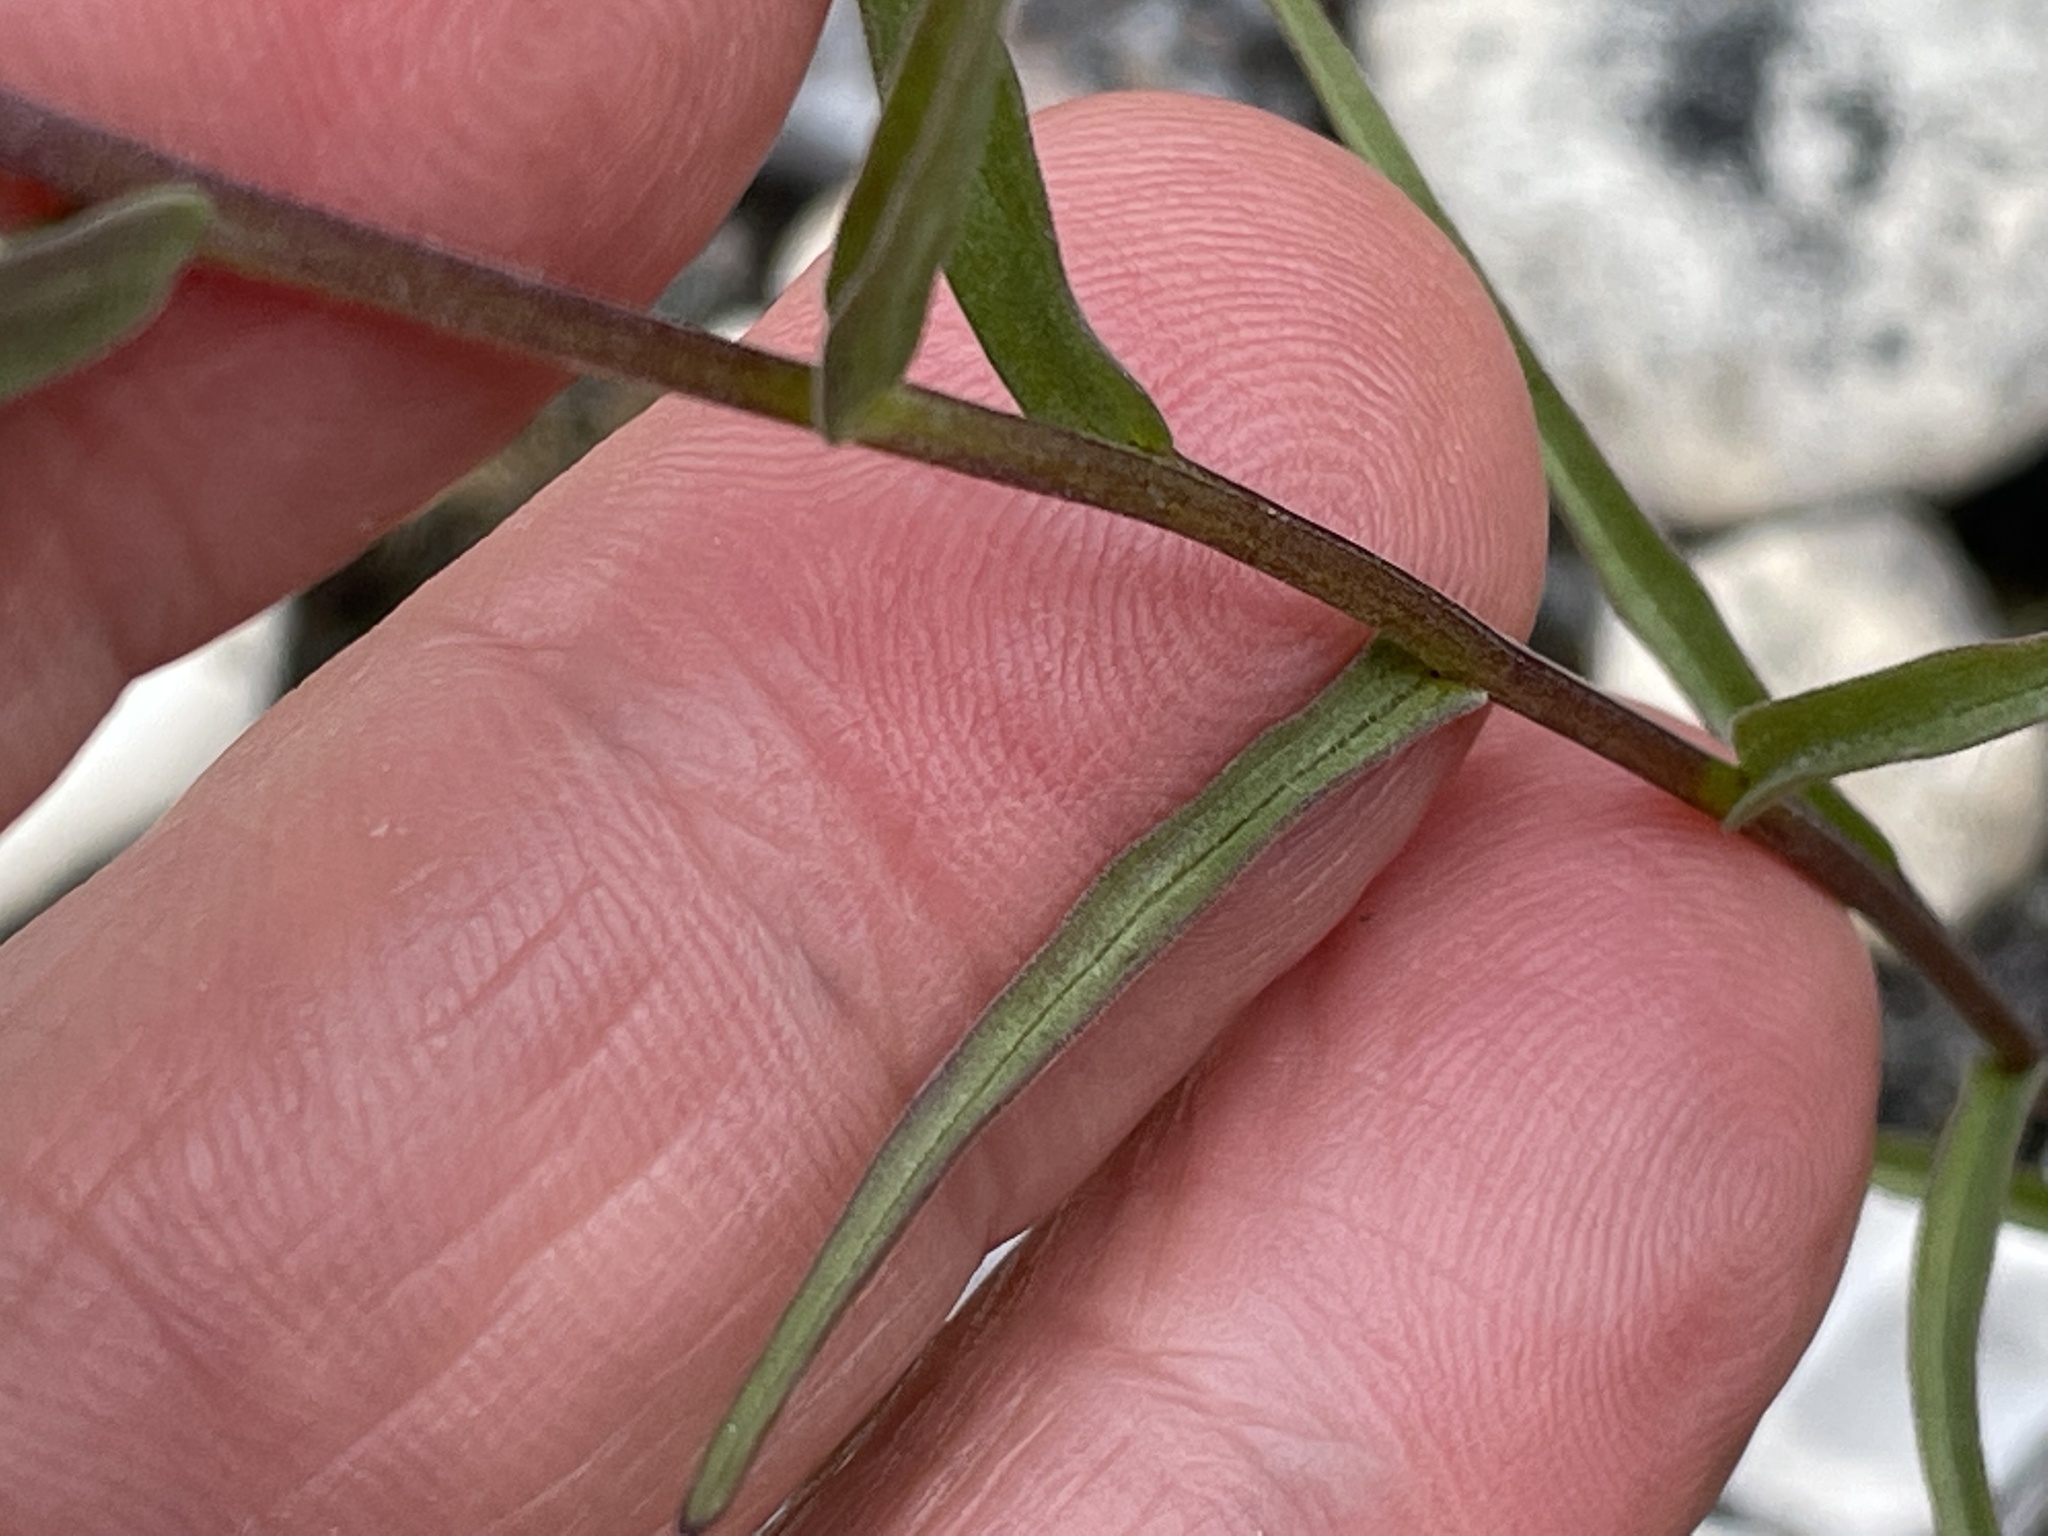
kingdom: Plantae
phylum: Tracheophyta
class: Magnoliopsida
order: Lamiales
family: Orobanchaceae
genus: Castilleja
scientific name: Castilleja raupii
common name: Raup's paintbrush
